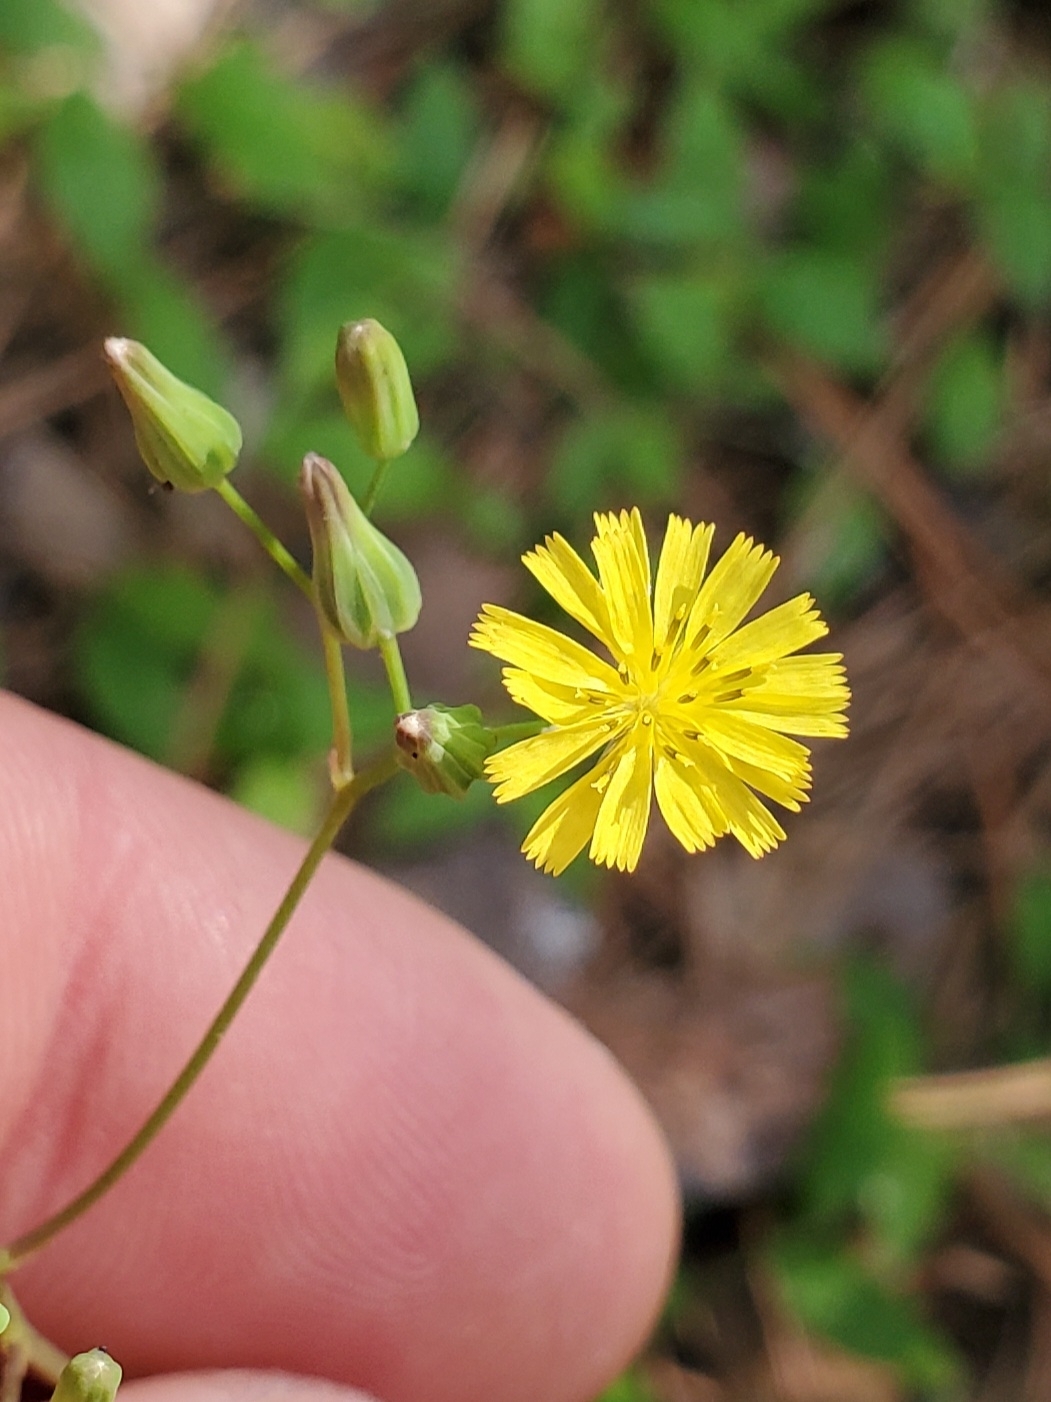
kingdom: Plantae
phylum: Tracheophyta
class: Magnoliopsida
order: Asterales
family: Asteraceae
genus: Youngia
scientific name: Youngia japonica
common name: Oriental false hawksbeard
